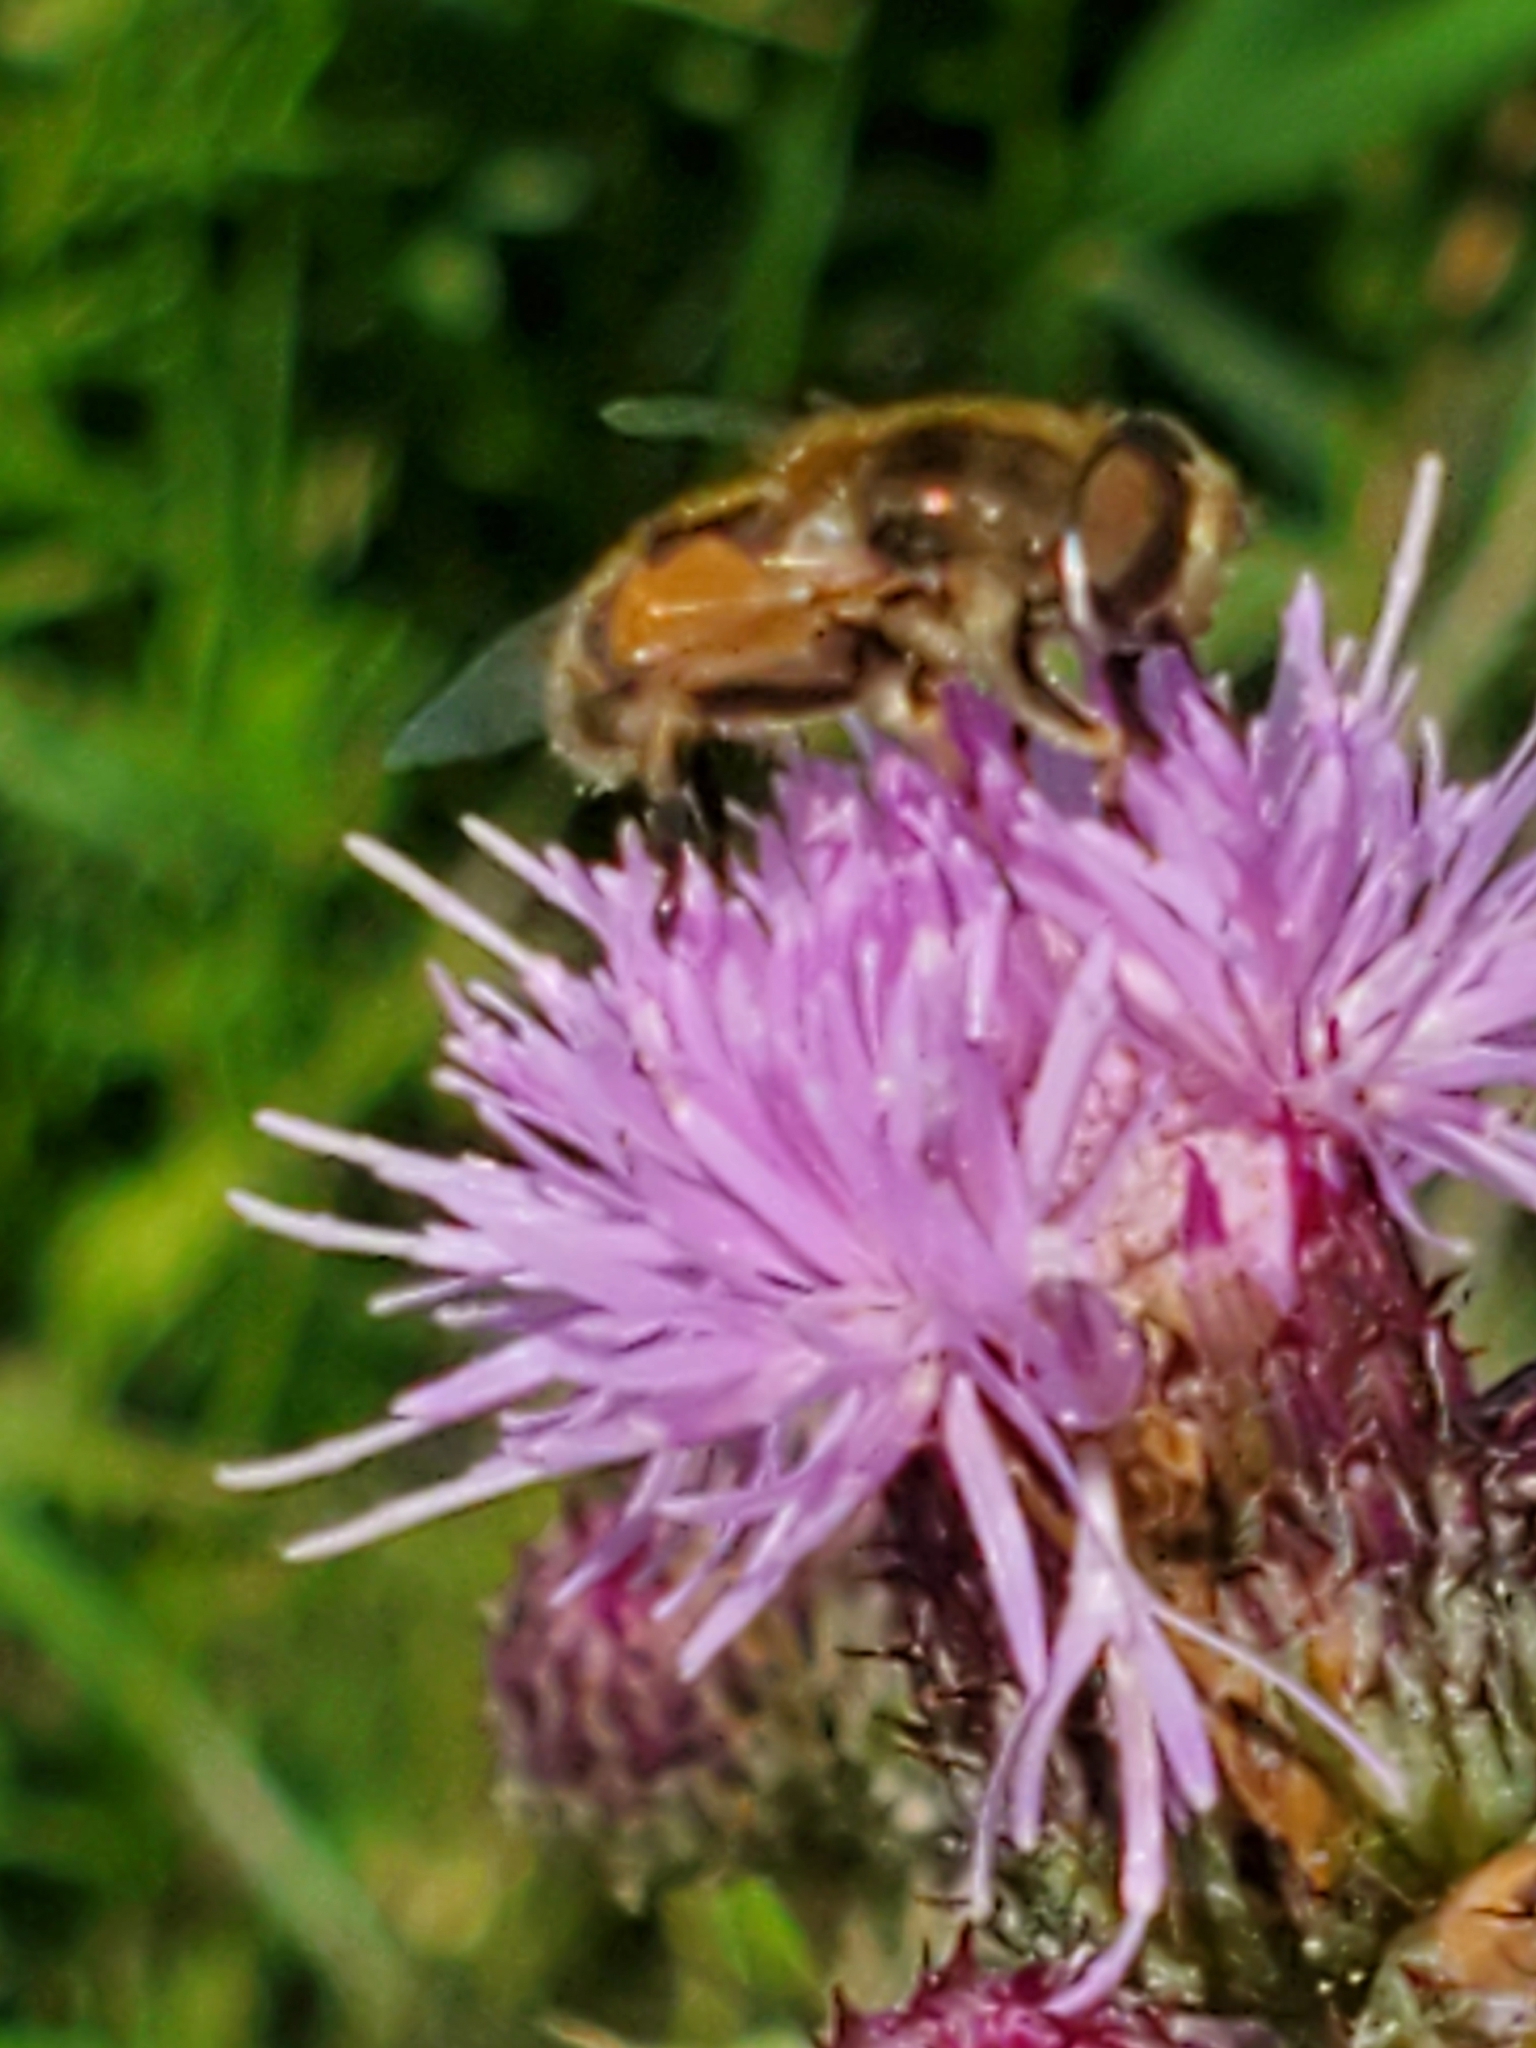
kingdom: Animalia
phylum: Arthropoda
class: Insecta
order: Diptera
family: Syrphidae
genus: Eristalis
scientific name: Eristalis arbustorum
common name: Hover fly
